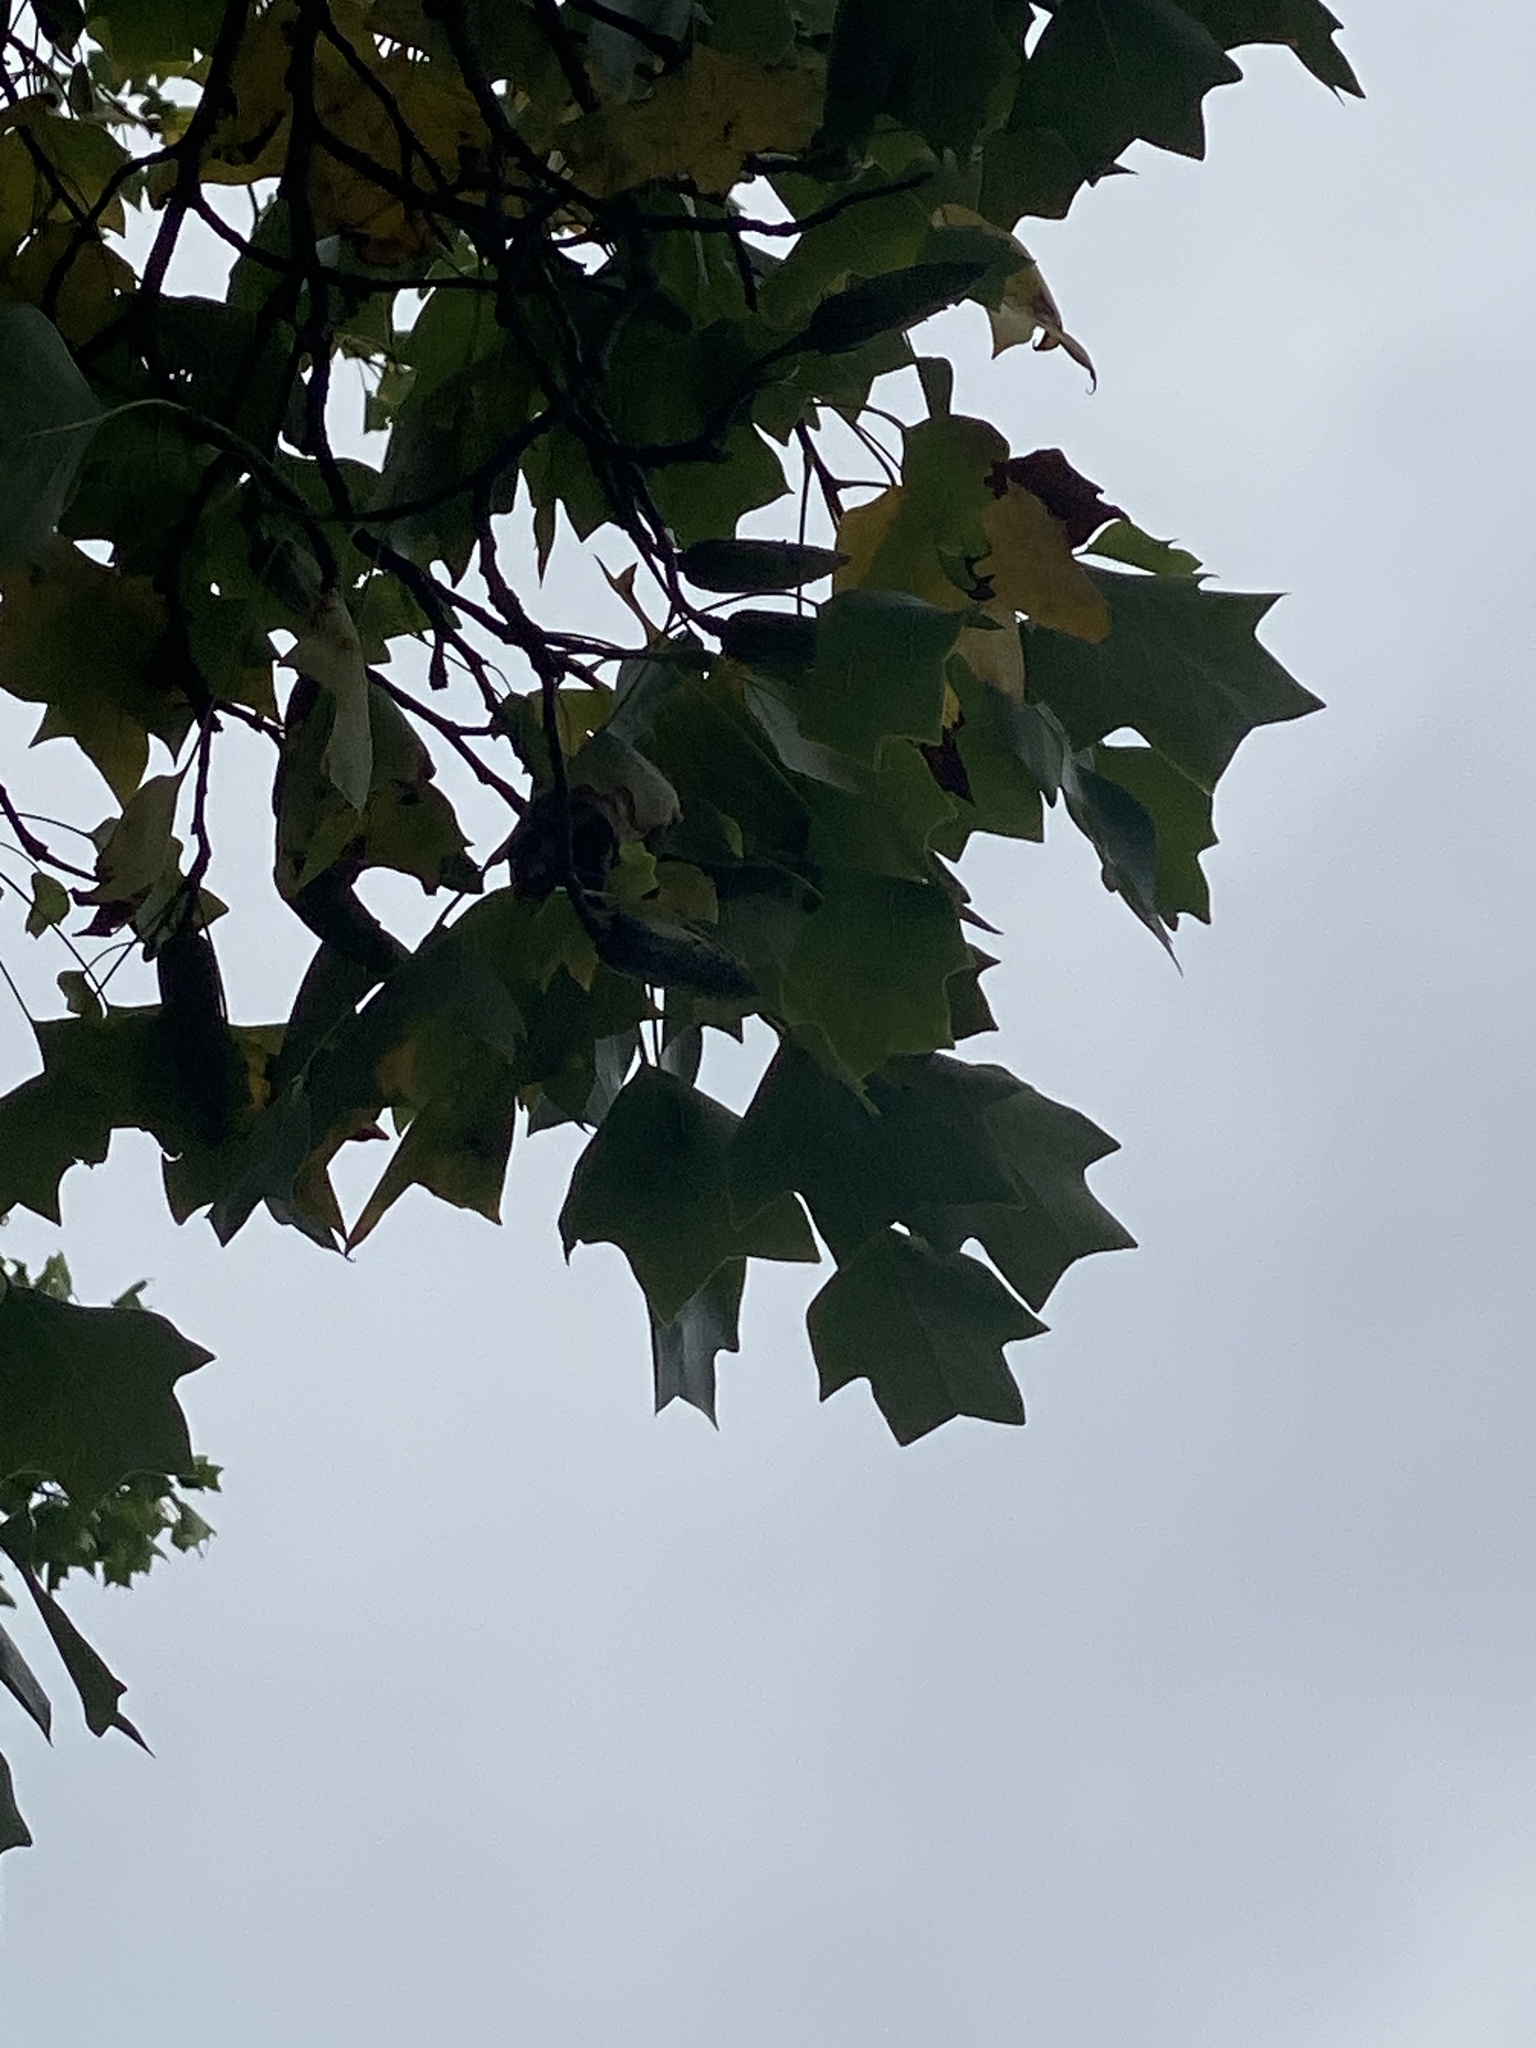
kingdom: Plantae
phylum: Tracheophyta
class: Magnoliopsida
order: Magnoliales
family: Magnoliaceae
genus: Liriodendron
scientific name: Liriodendron tulipifera
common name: Tulip tree
